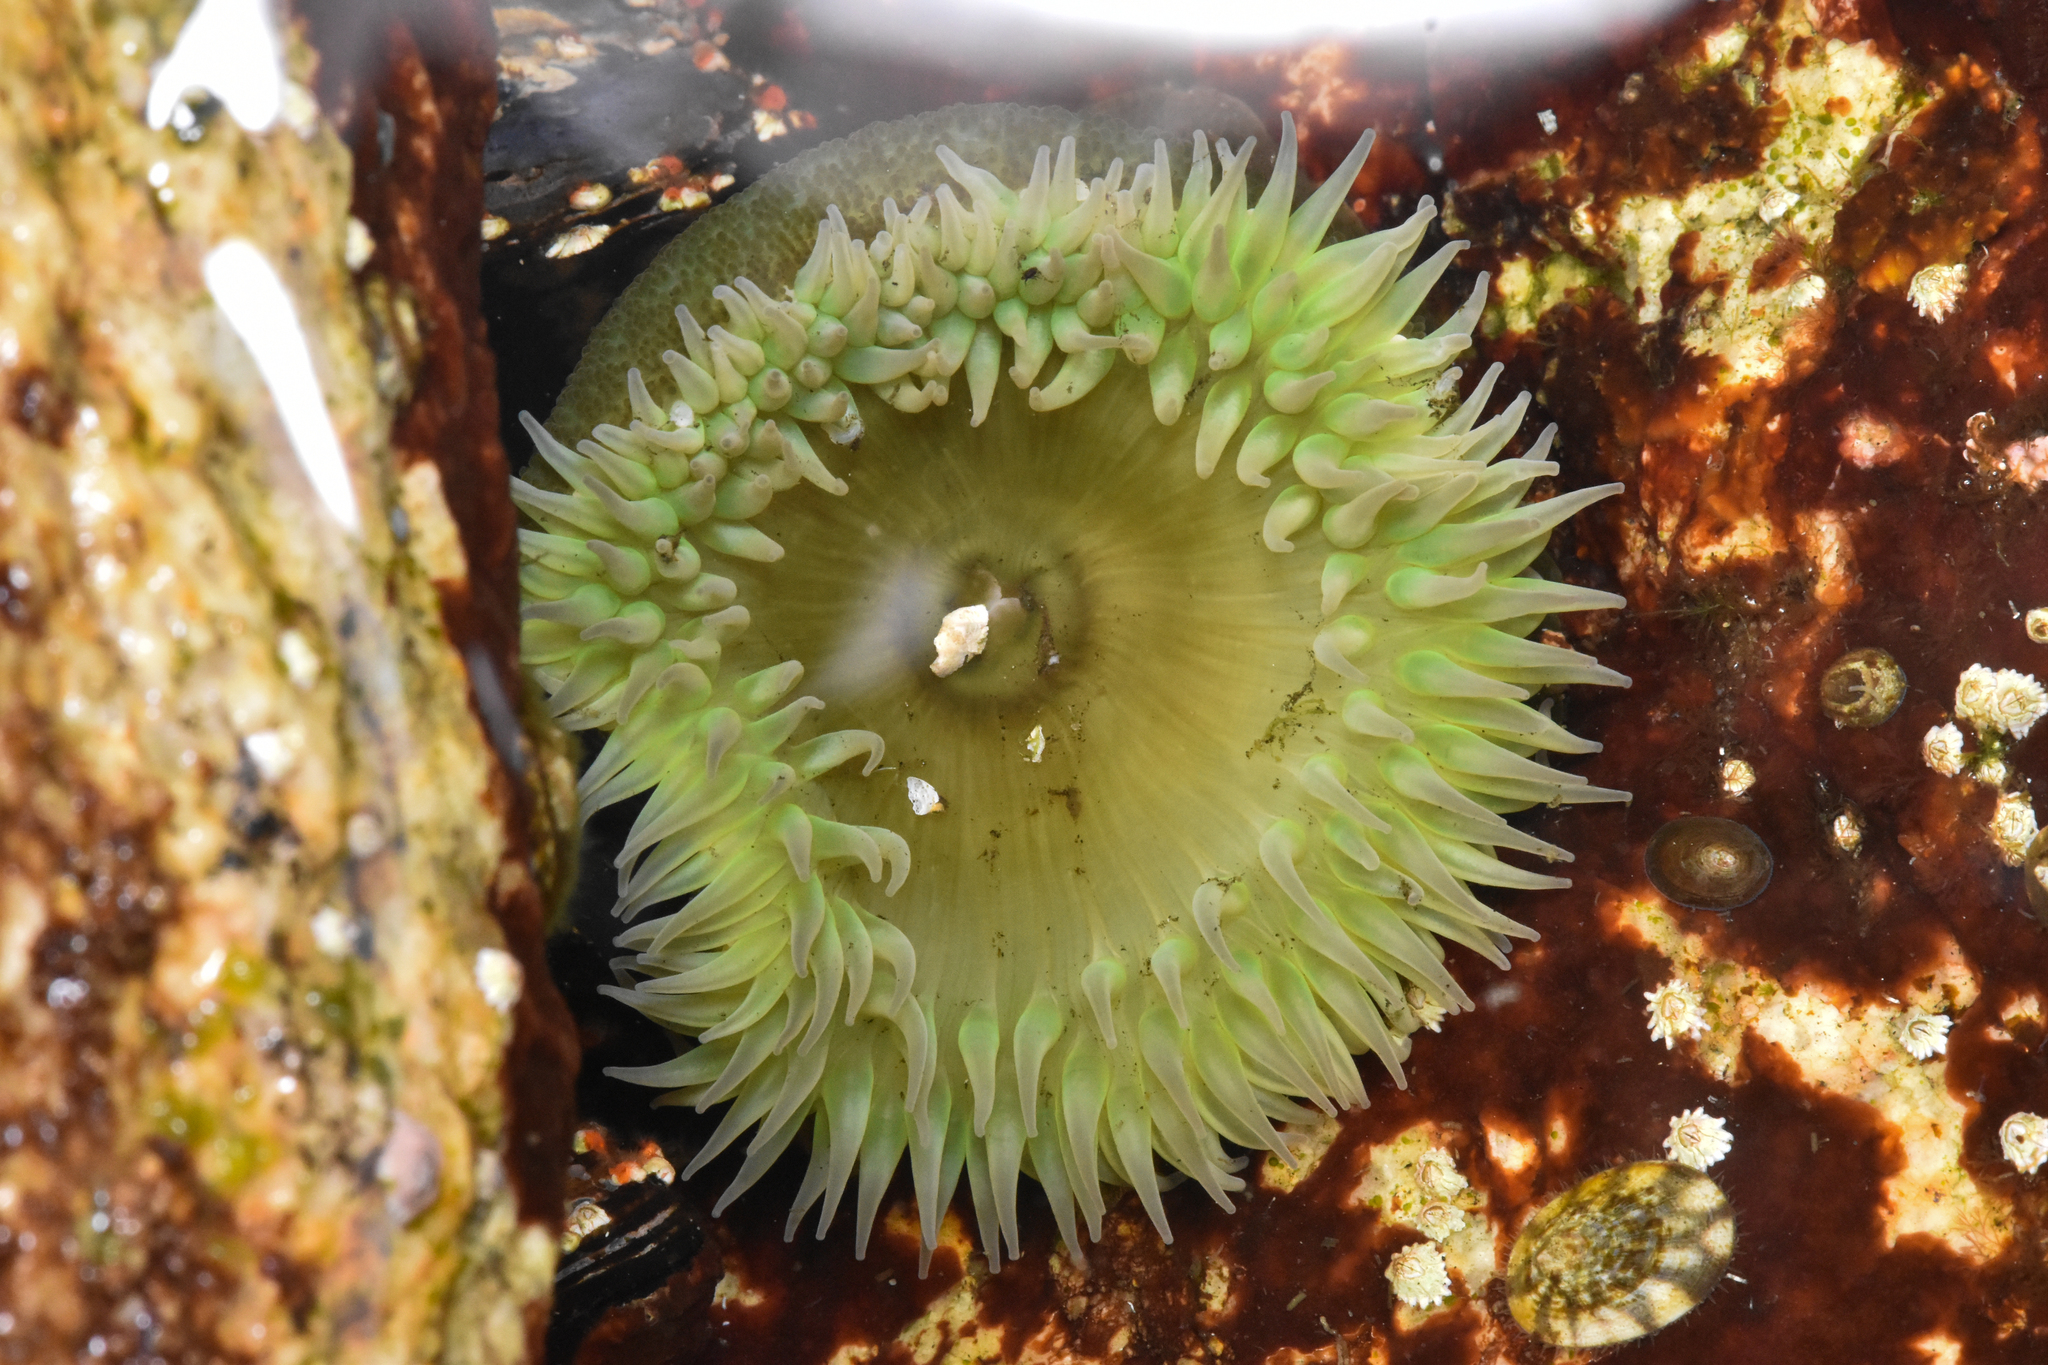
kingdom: Animalia
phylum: Cnidaria
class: Anthozoa
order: Actiniaria
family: Actiniidae
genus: Anthopleura
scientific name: Anthopleura xanthogrammica
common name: Giant green anemone
